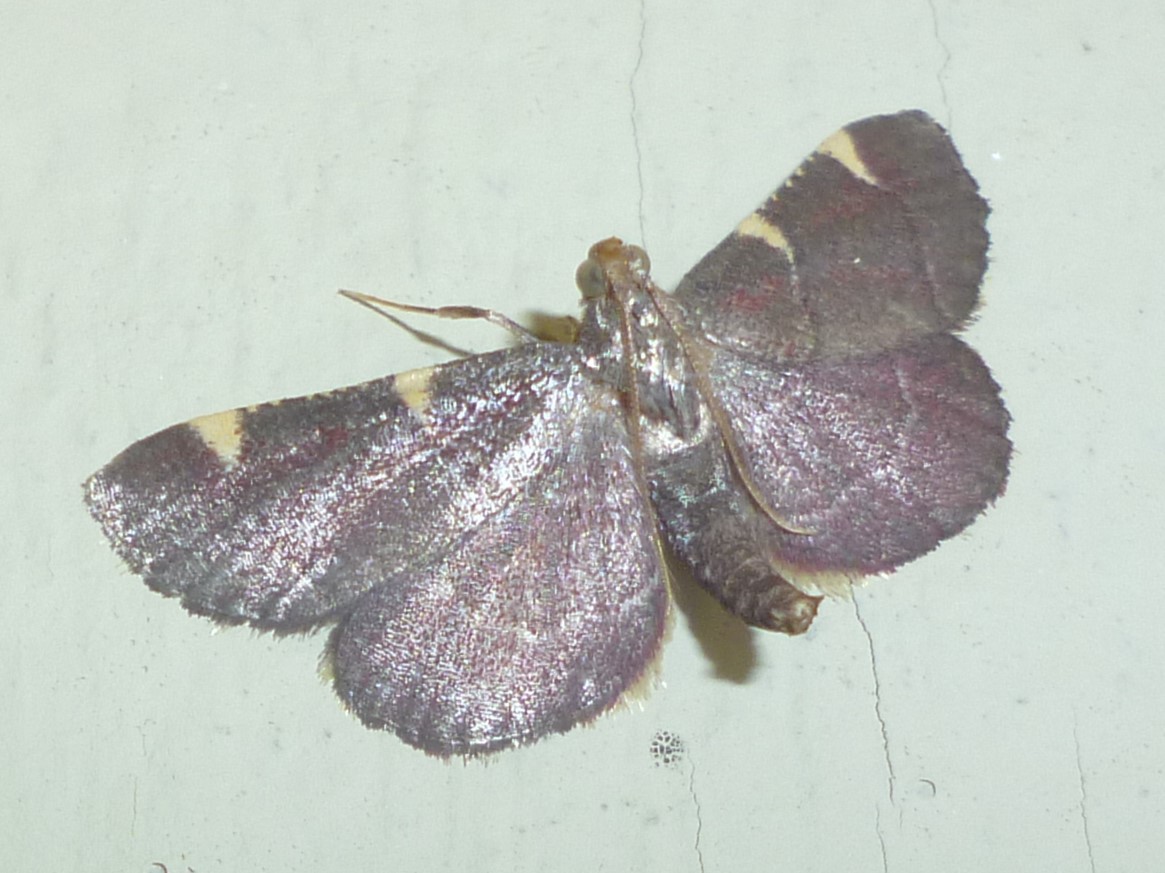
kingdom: Animalia
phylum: Arthropoda
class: Insecta
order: Lepidoptera
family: Pyralidae
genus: Hypsopygia
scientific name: Hypsopygia olinalis
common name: Yellow-fringed dolichomia moth
